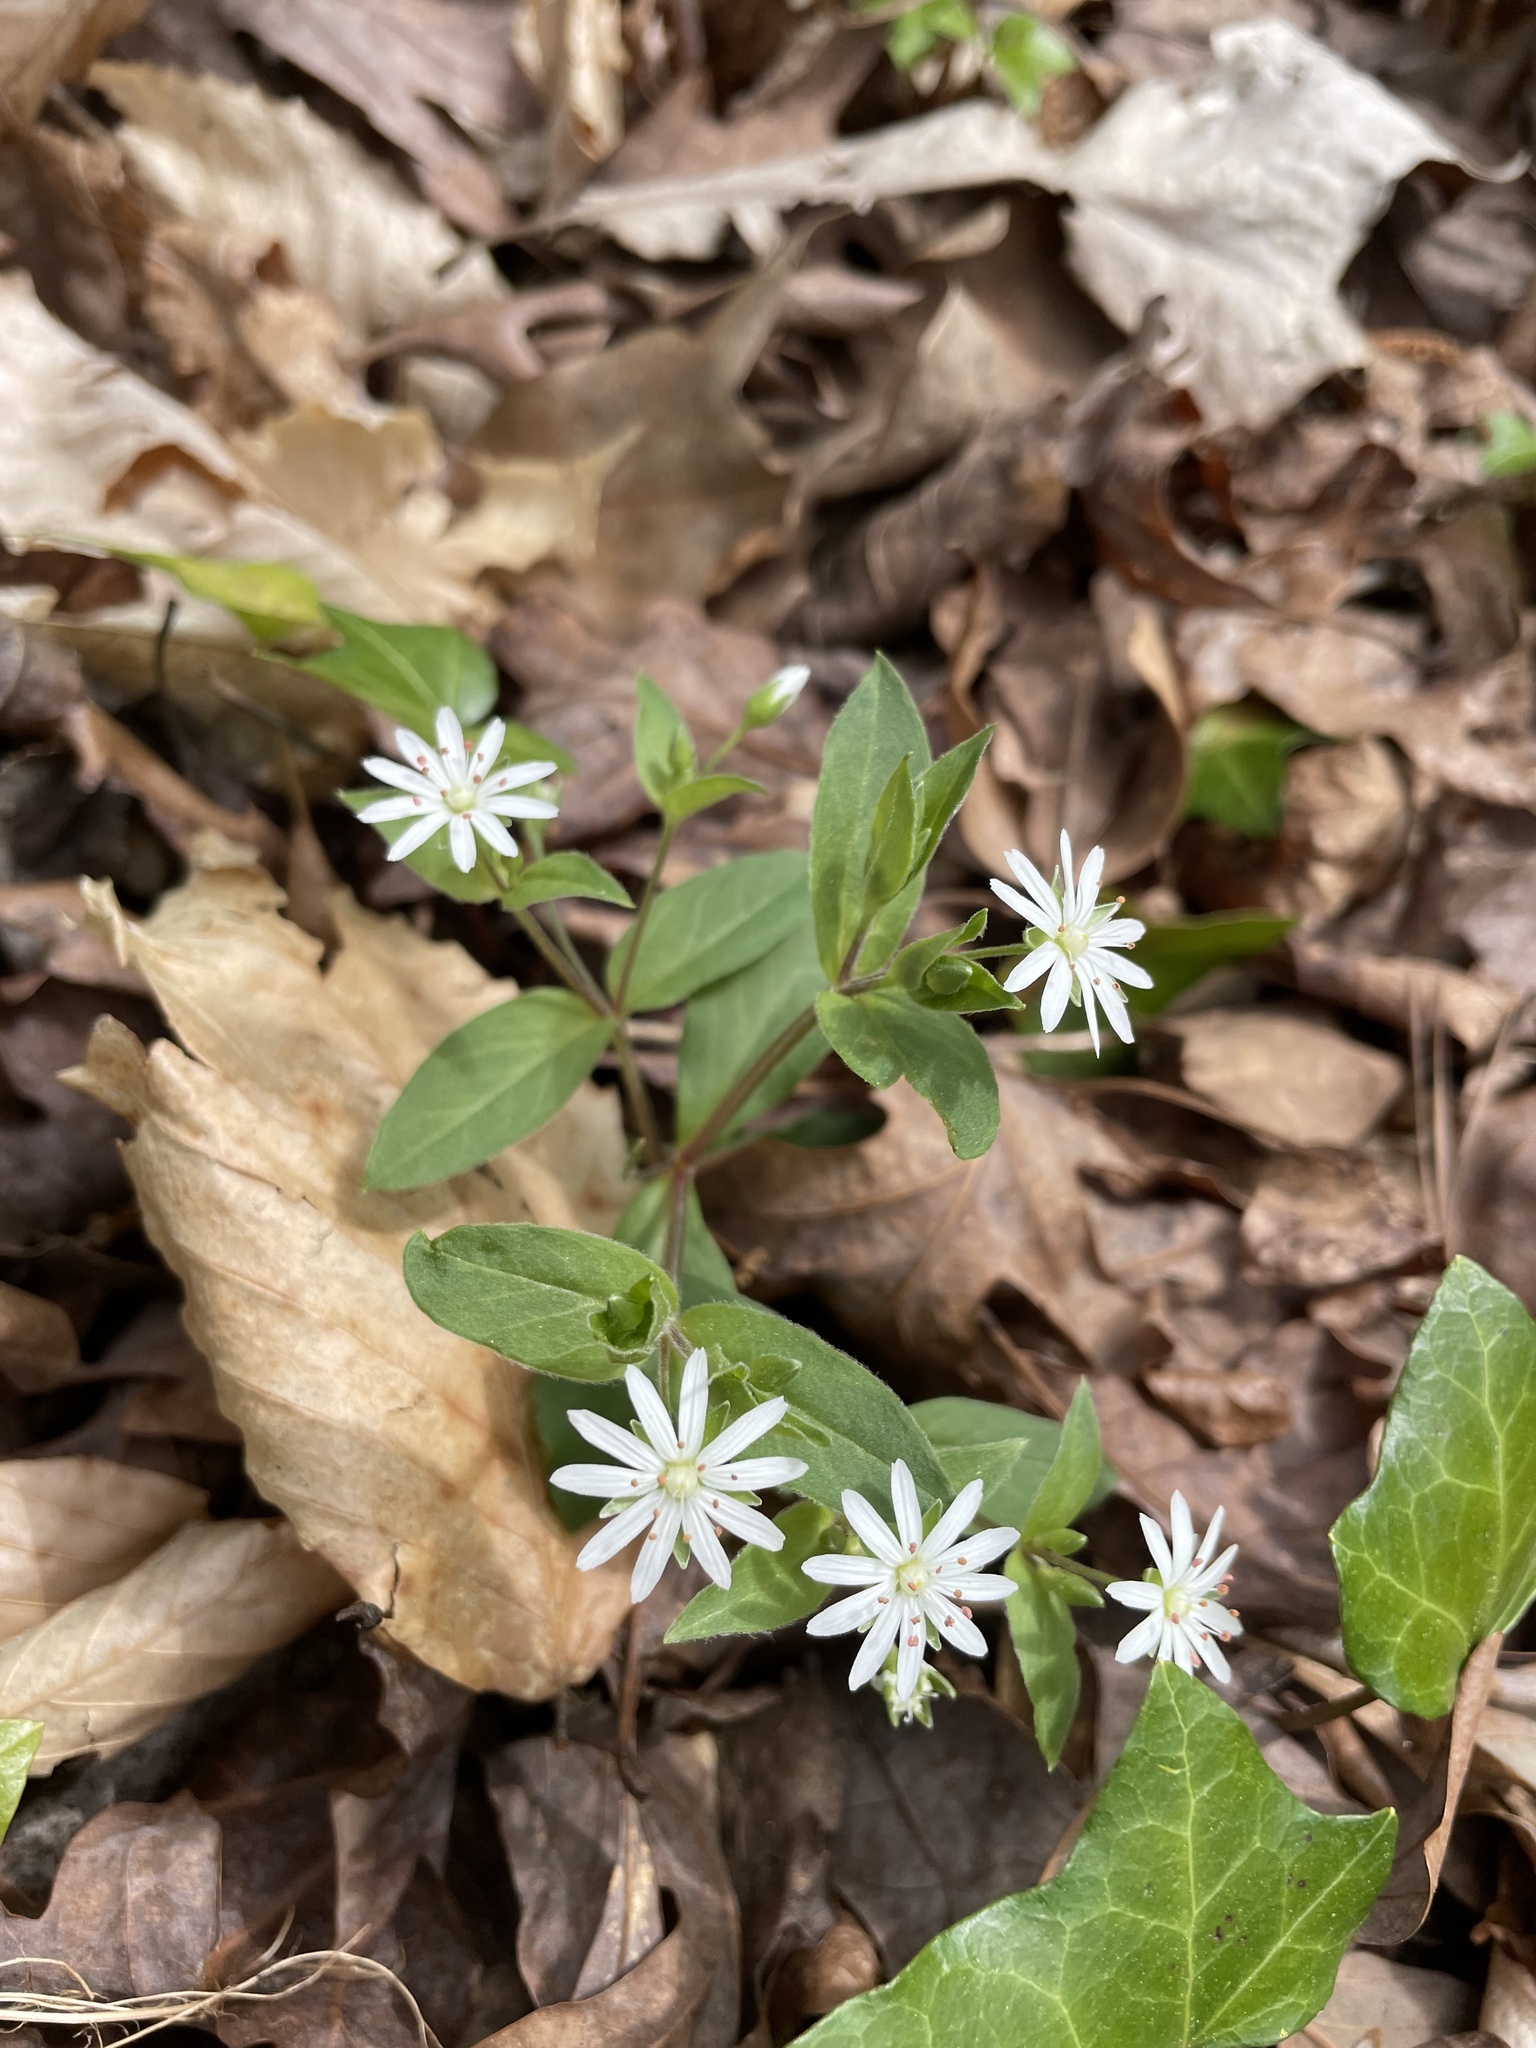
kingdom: Plantae
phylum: Tracheophyta
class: Magnoliopsida
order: Caryophyllales
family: Caryophyllaceae
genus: Stellaria
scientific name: Stellaria pubera
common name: Star chickweed
